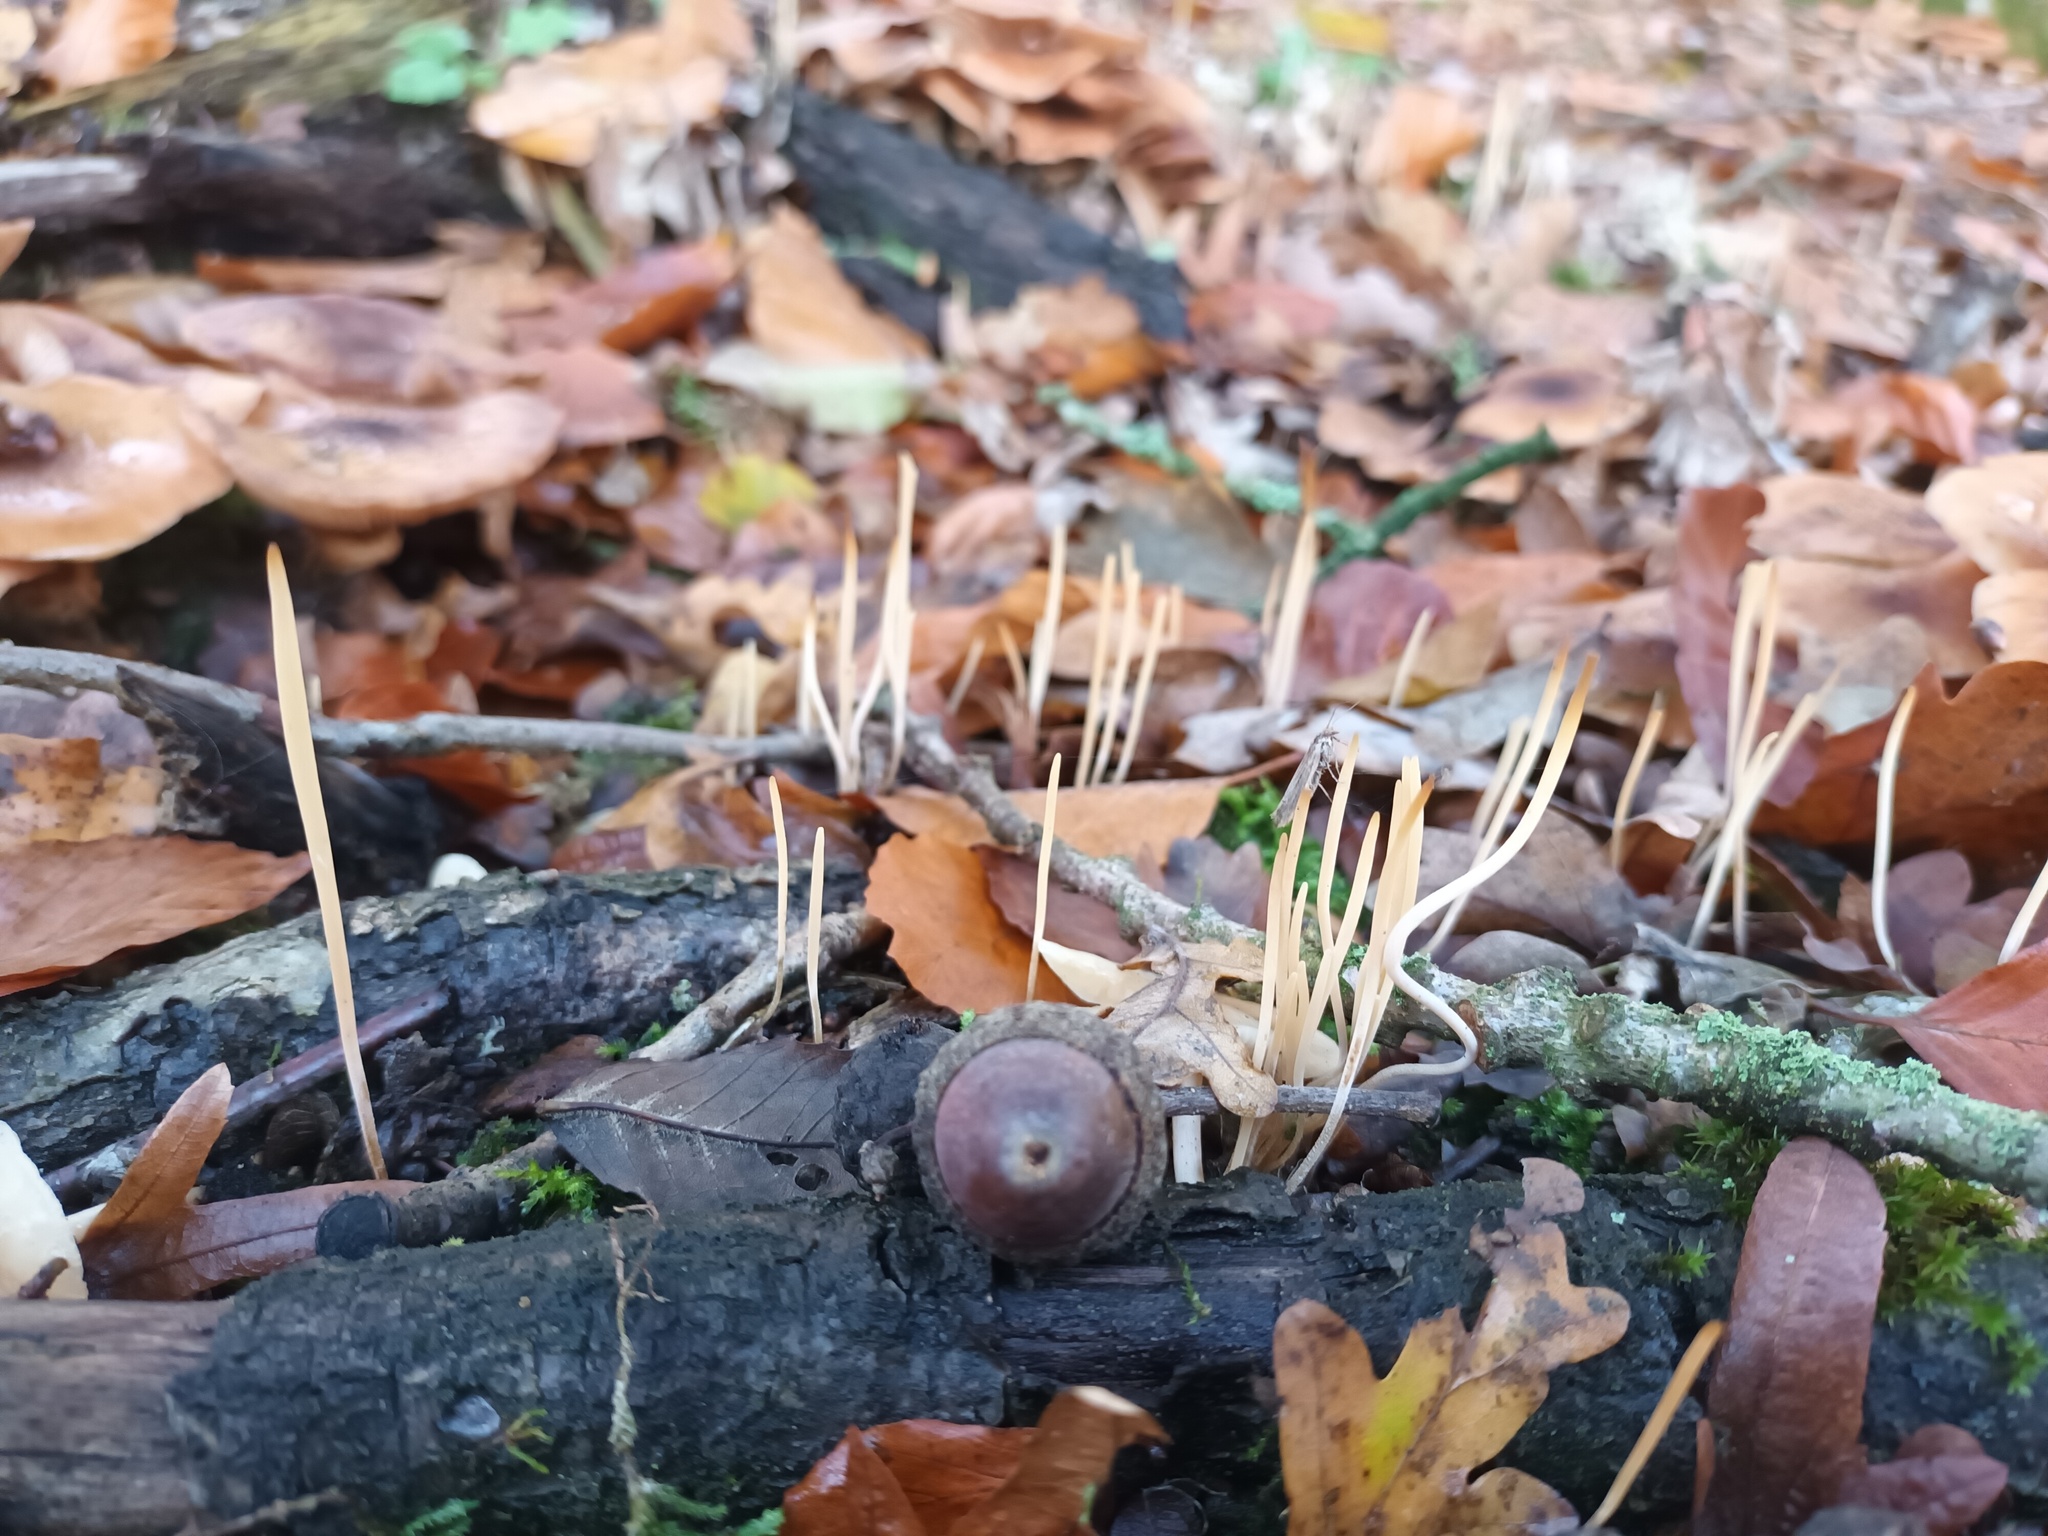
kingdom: Fungi
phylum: Basidiomycota
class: Agaricomycetes
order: Agaricales
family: Typhulaceae
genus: Typhula
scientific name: Typhula juncea
